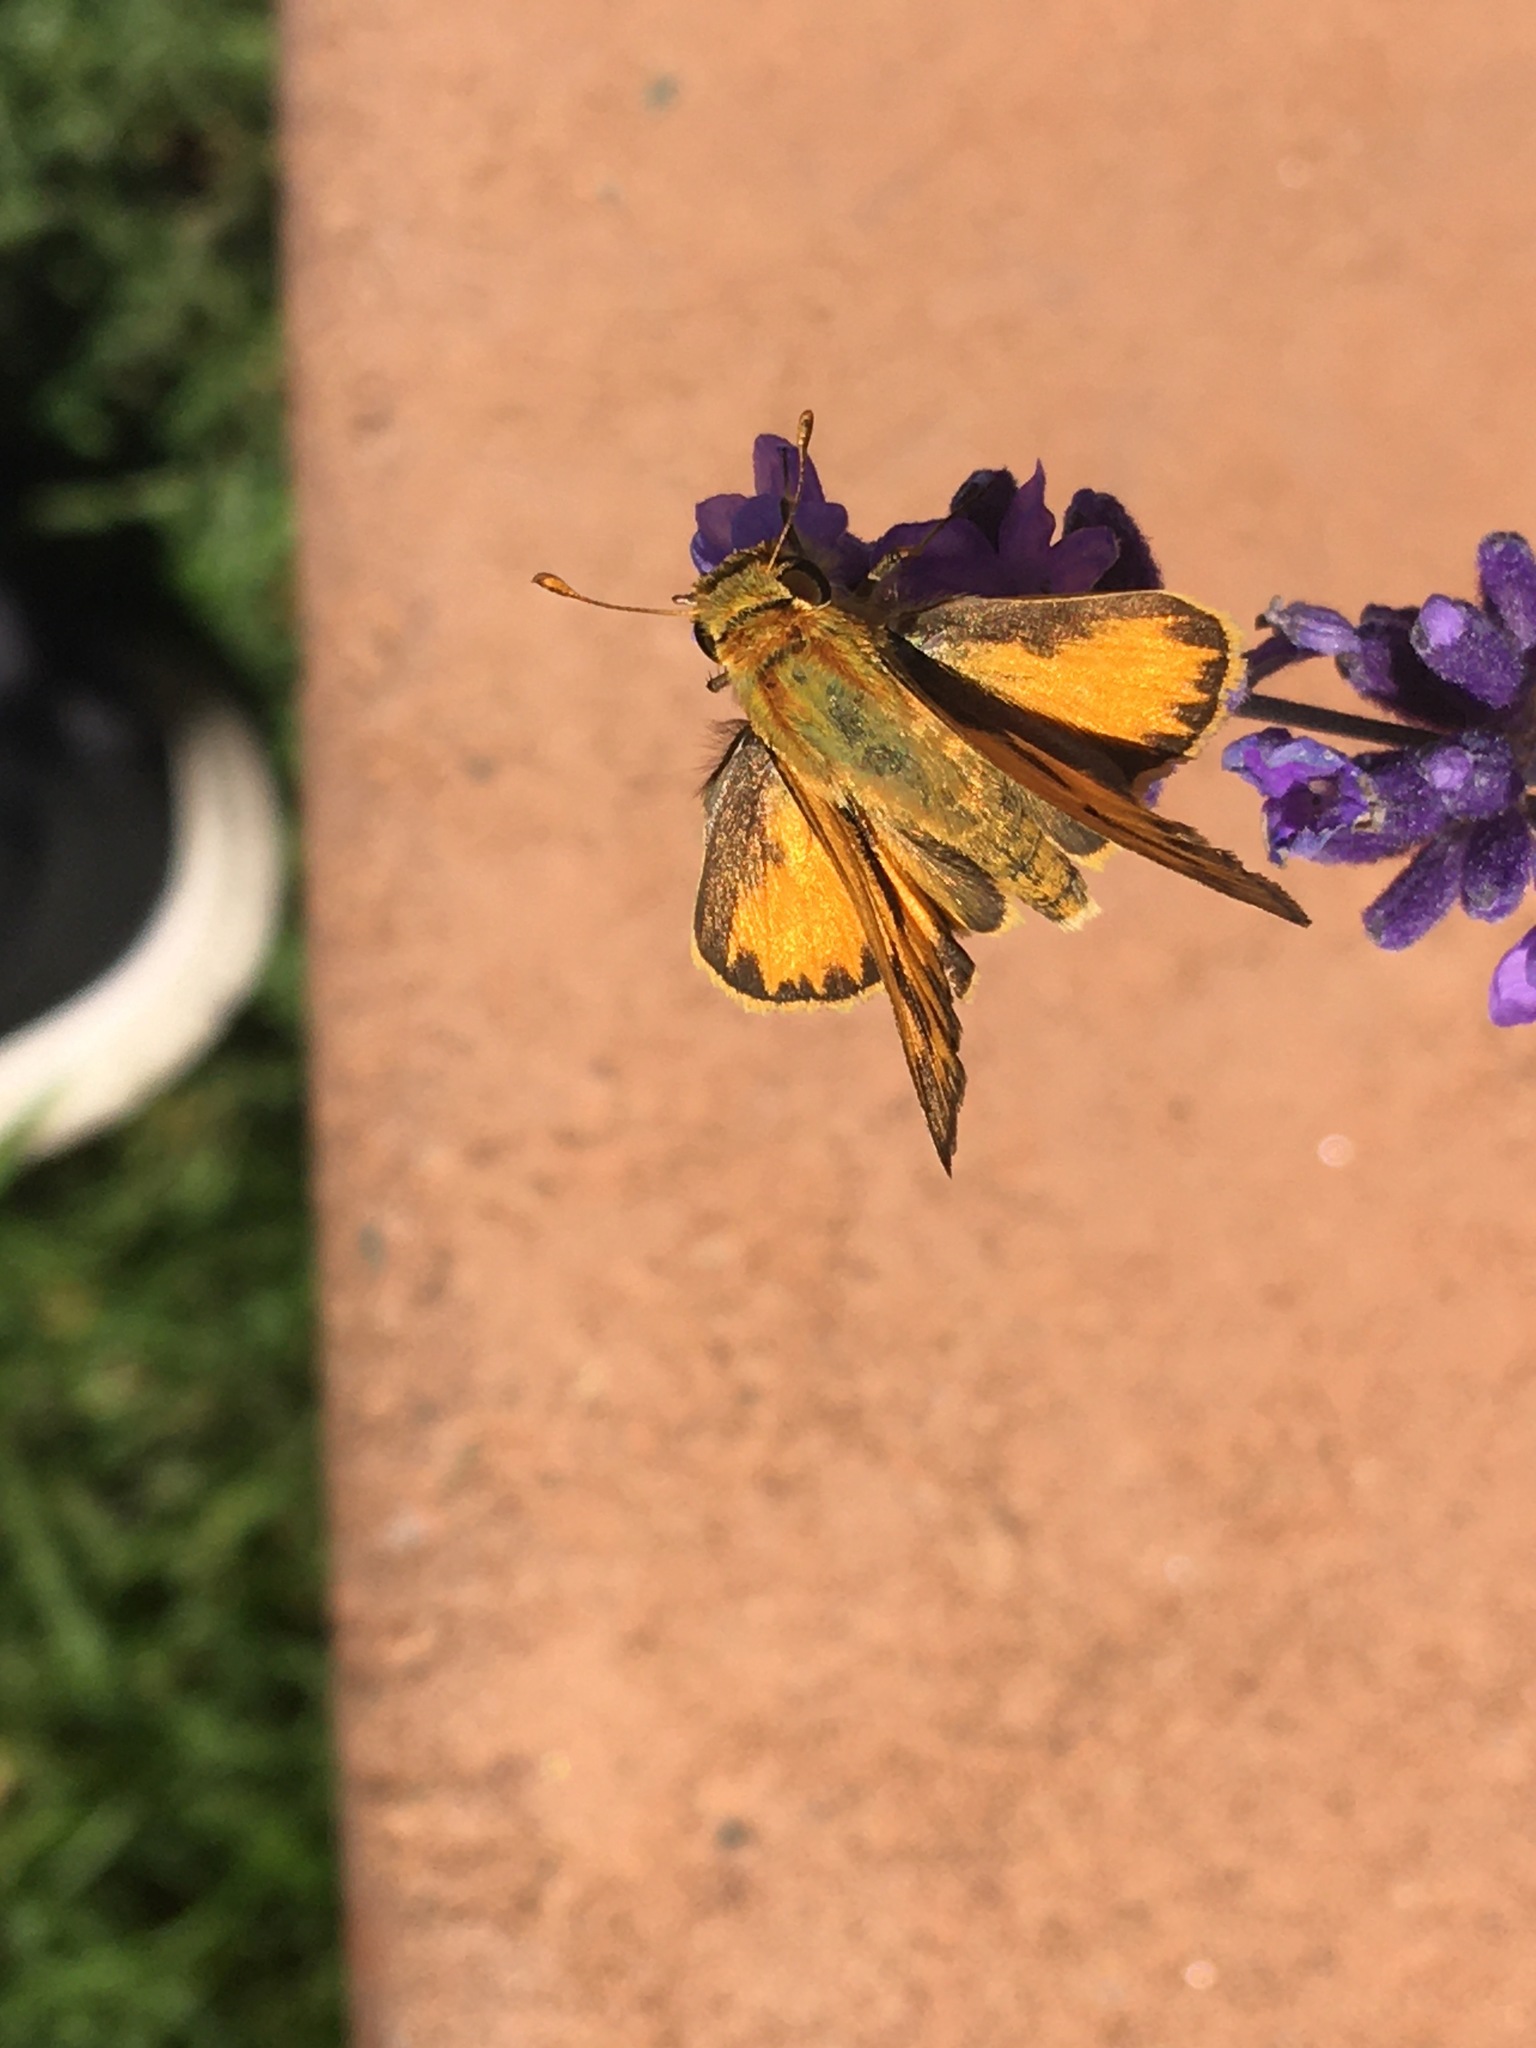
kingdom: Animalia
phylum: Arthropoda
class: Insecta
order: Lepidoptera
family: Hesperiidae
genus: Hylephila
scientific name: Hylephila phyleus
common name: Fiery skipper
